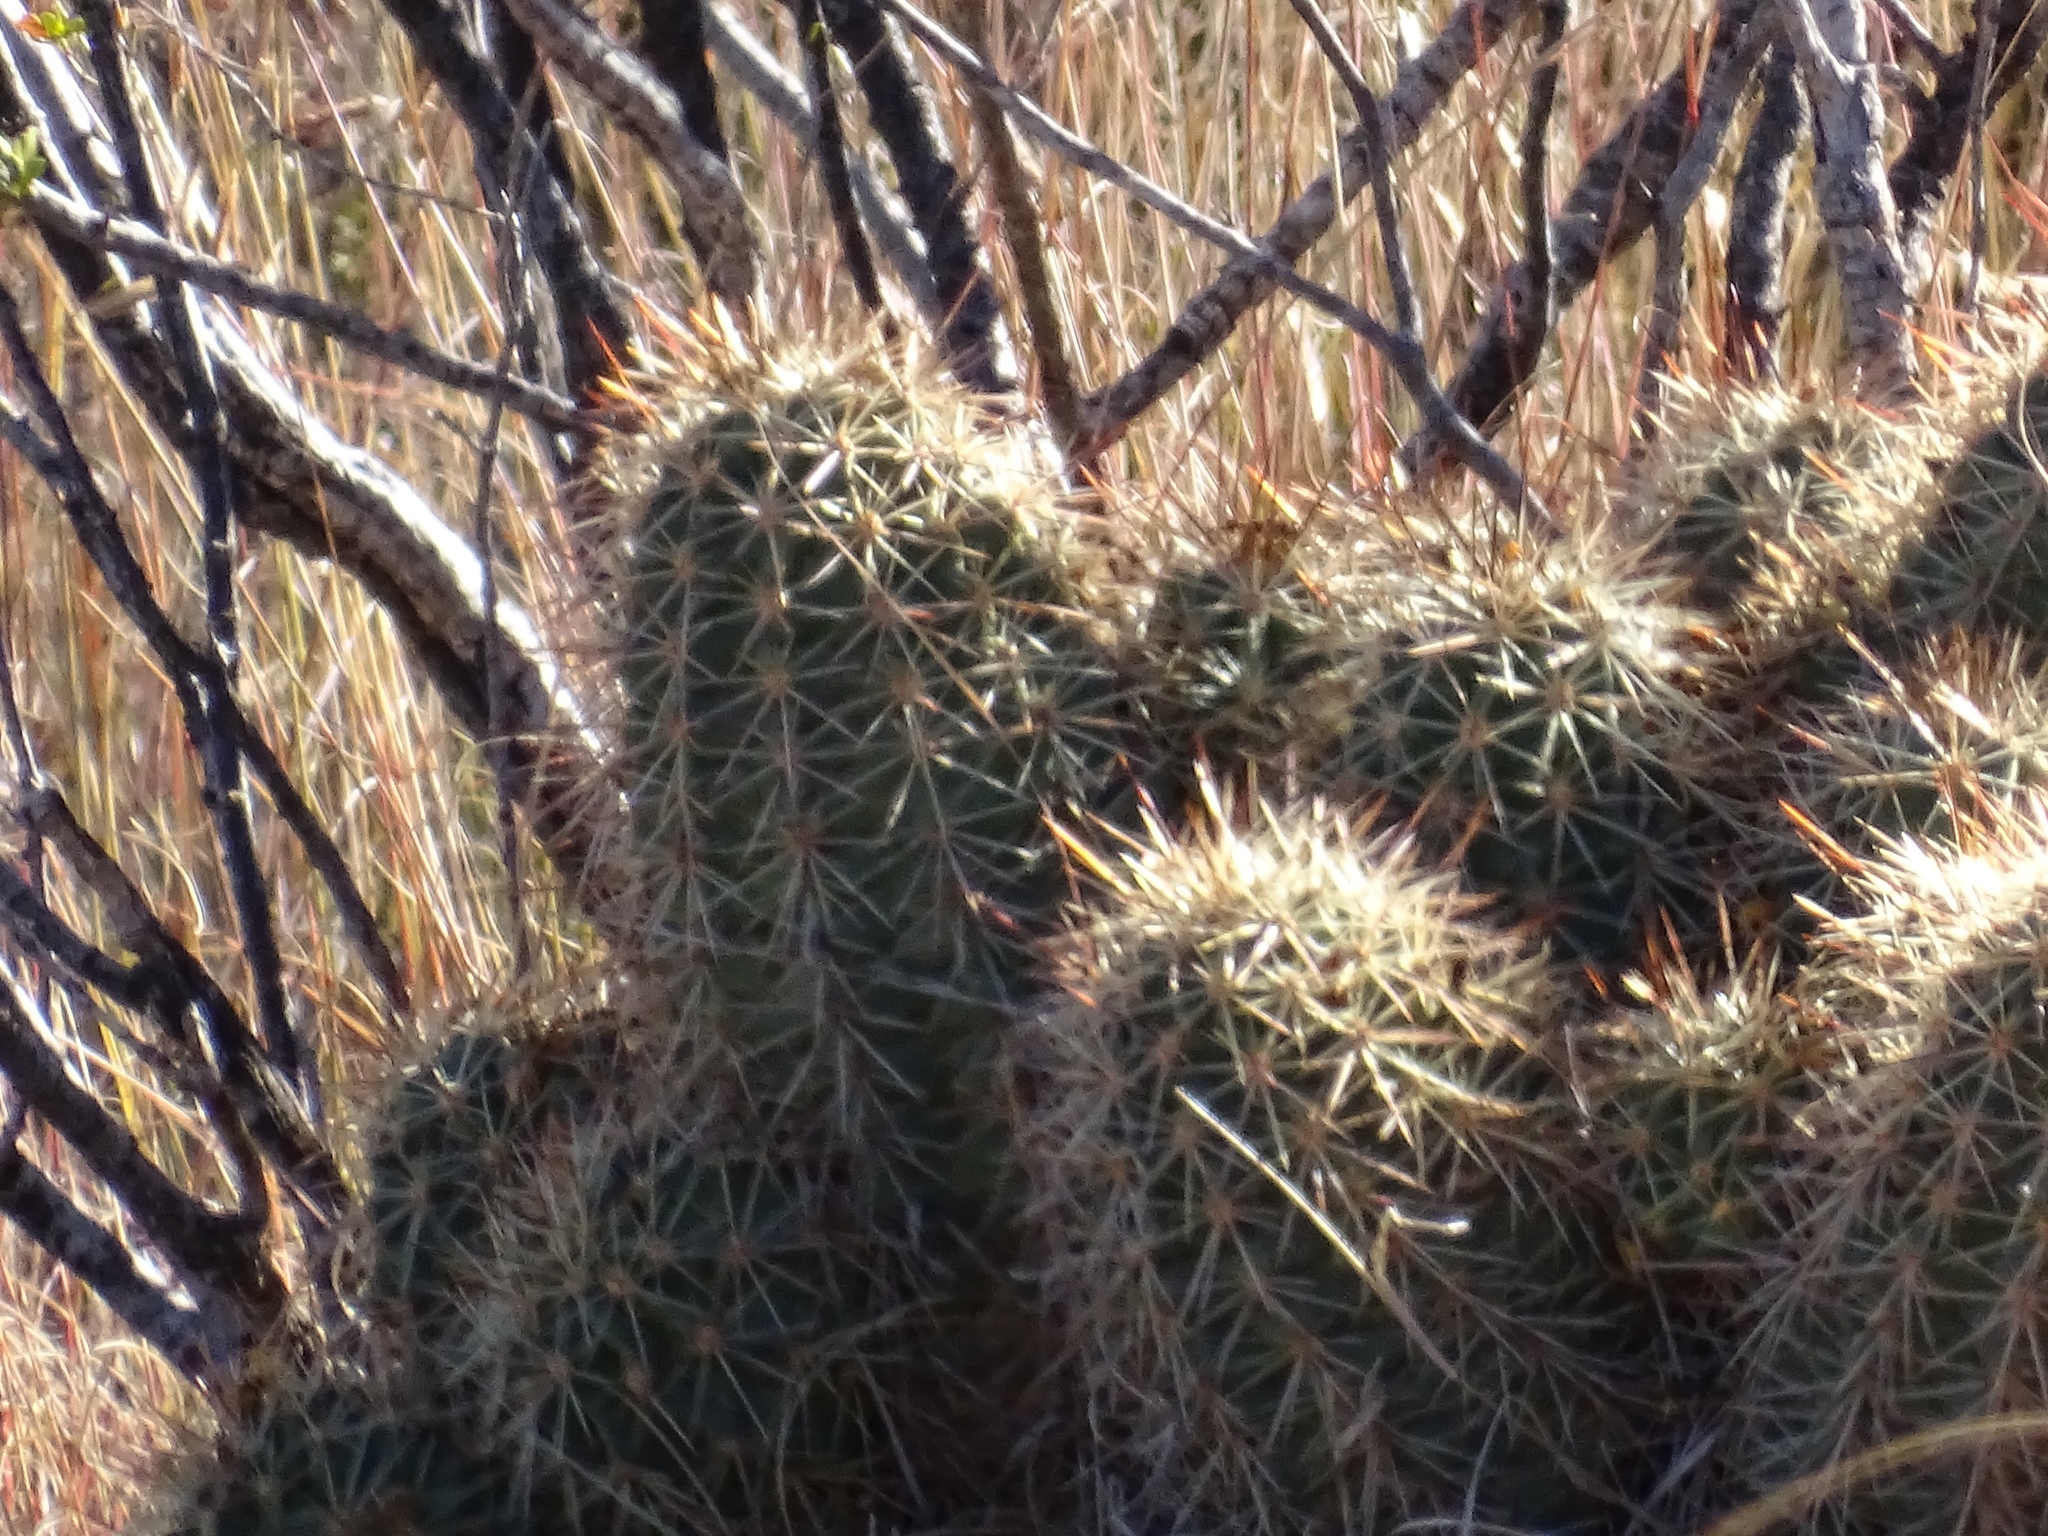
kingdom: Plantae
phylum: Tracheophyta
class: Magnoliopsida
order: Caryophyllales
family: Cactaceae
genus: Echinocereus
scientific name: Echinocereus coccineus
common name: Scarlet hedgehog cactus
